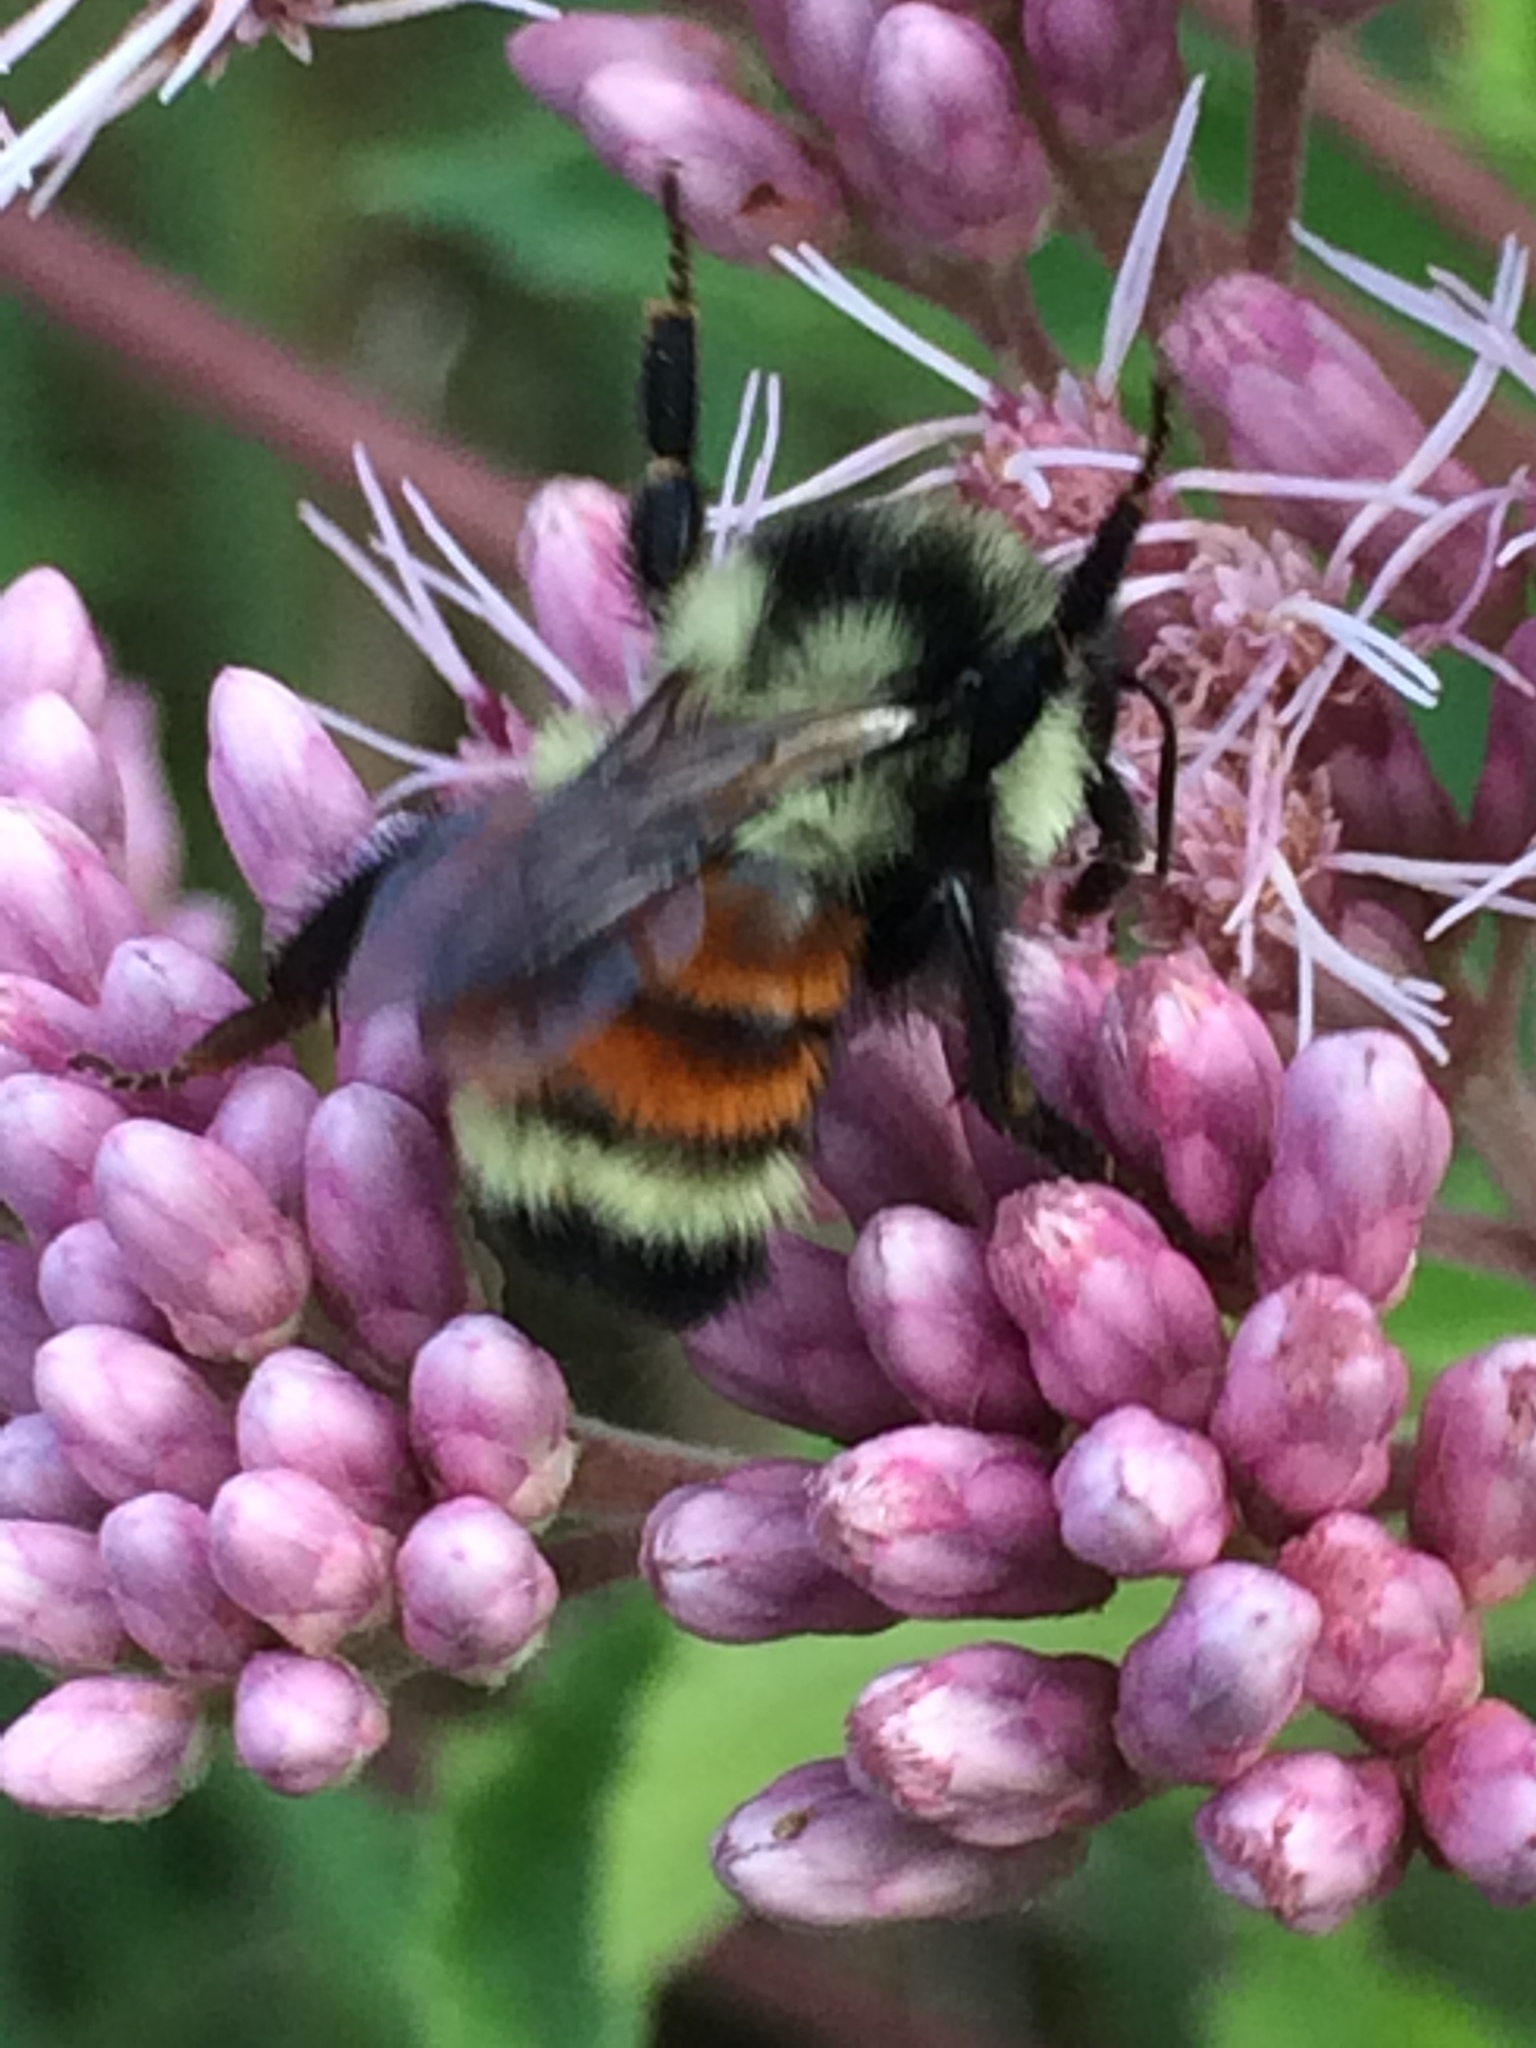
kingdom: Animalia
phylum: Arthropoda
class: Insecta
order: Hymenoptera
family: Apidae
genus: Bombus
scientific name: Bombus ternarius
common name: Tri-colored bumble bee
